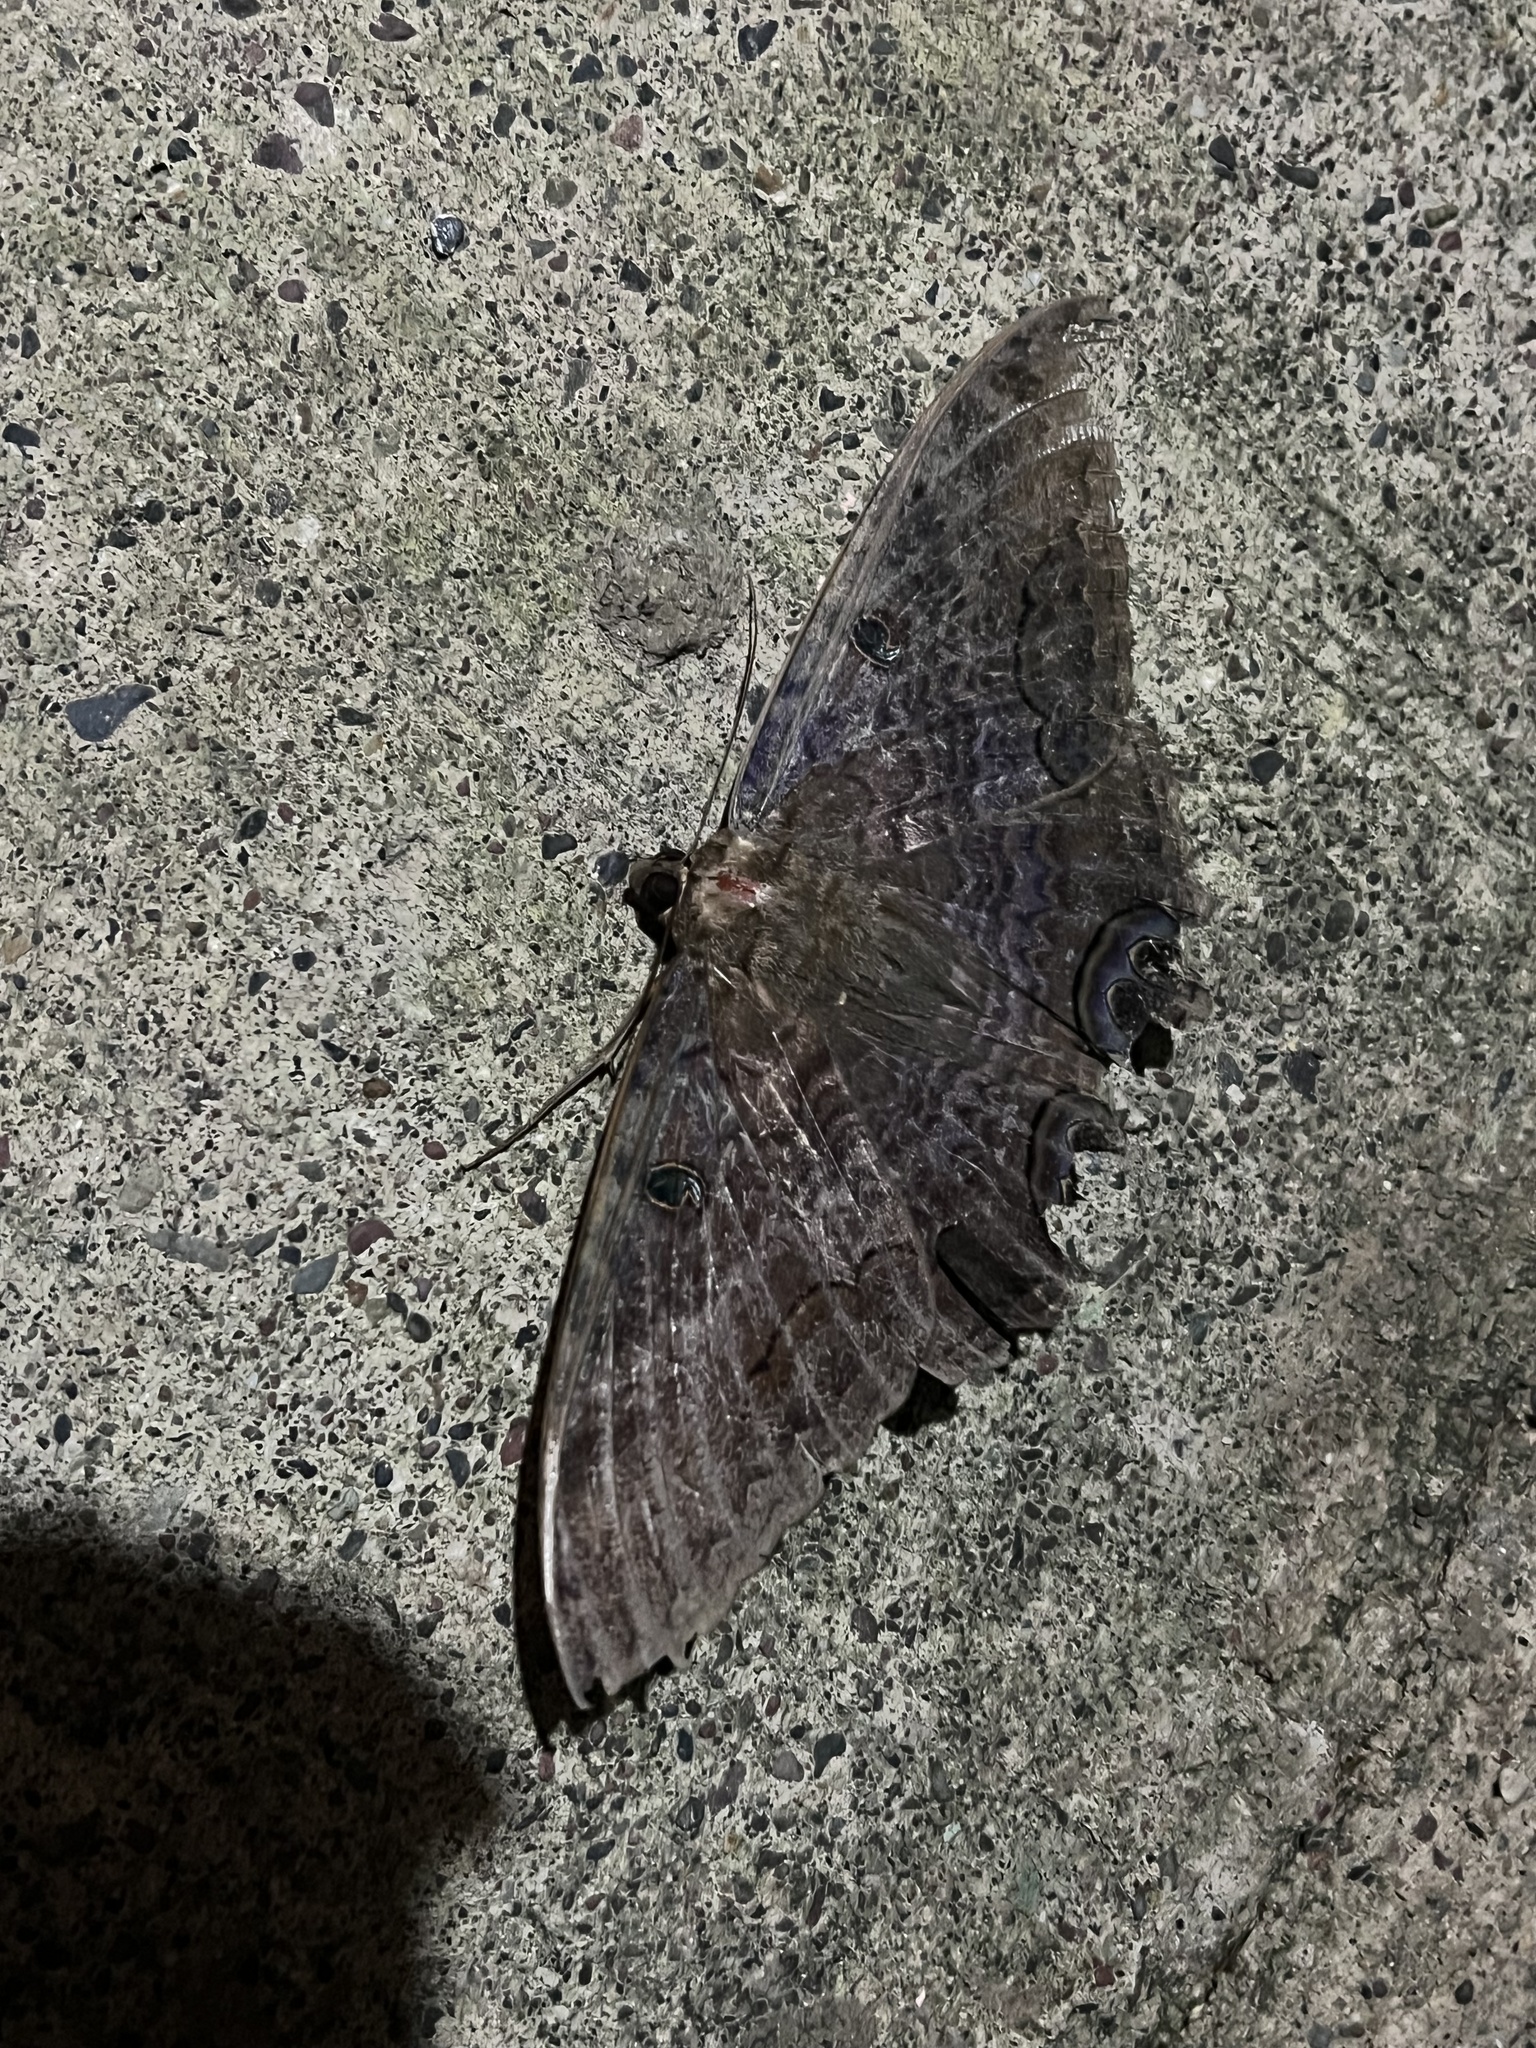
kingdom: Animalia
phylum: Arthropoda
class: Insecta
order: Lepidoptera
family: Erebidae
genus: Ascalapha
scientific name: Ascalapha odorata
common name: Black witch
